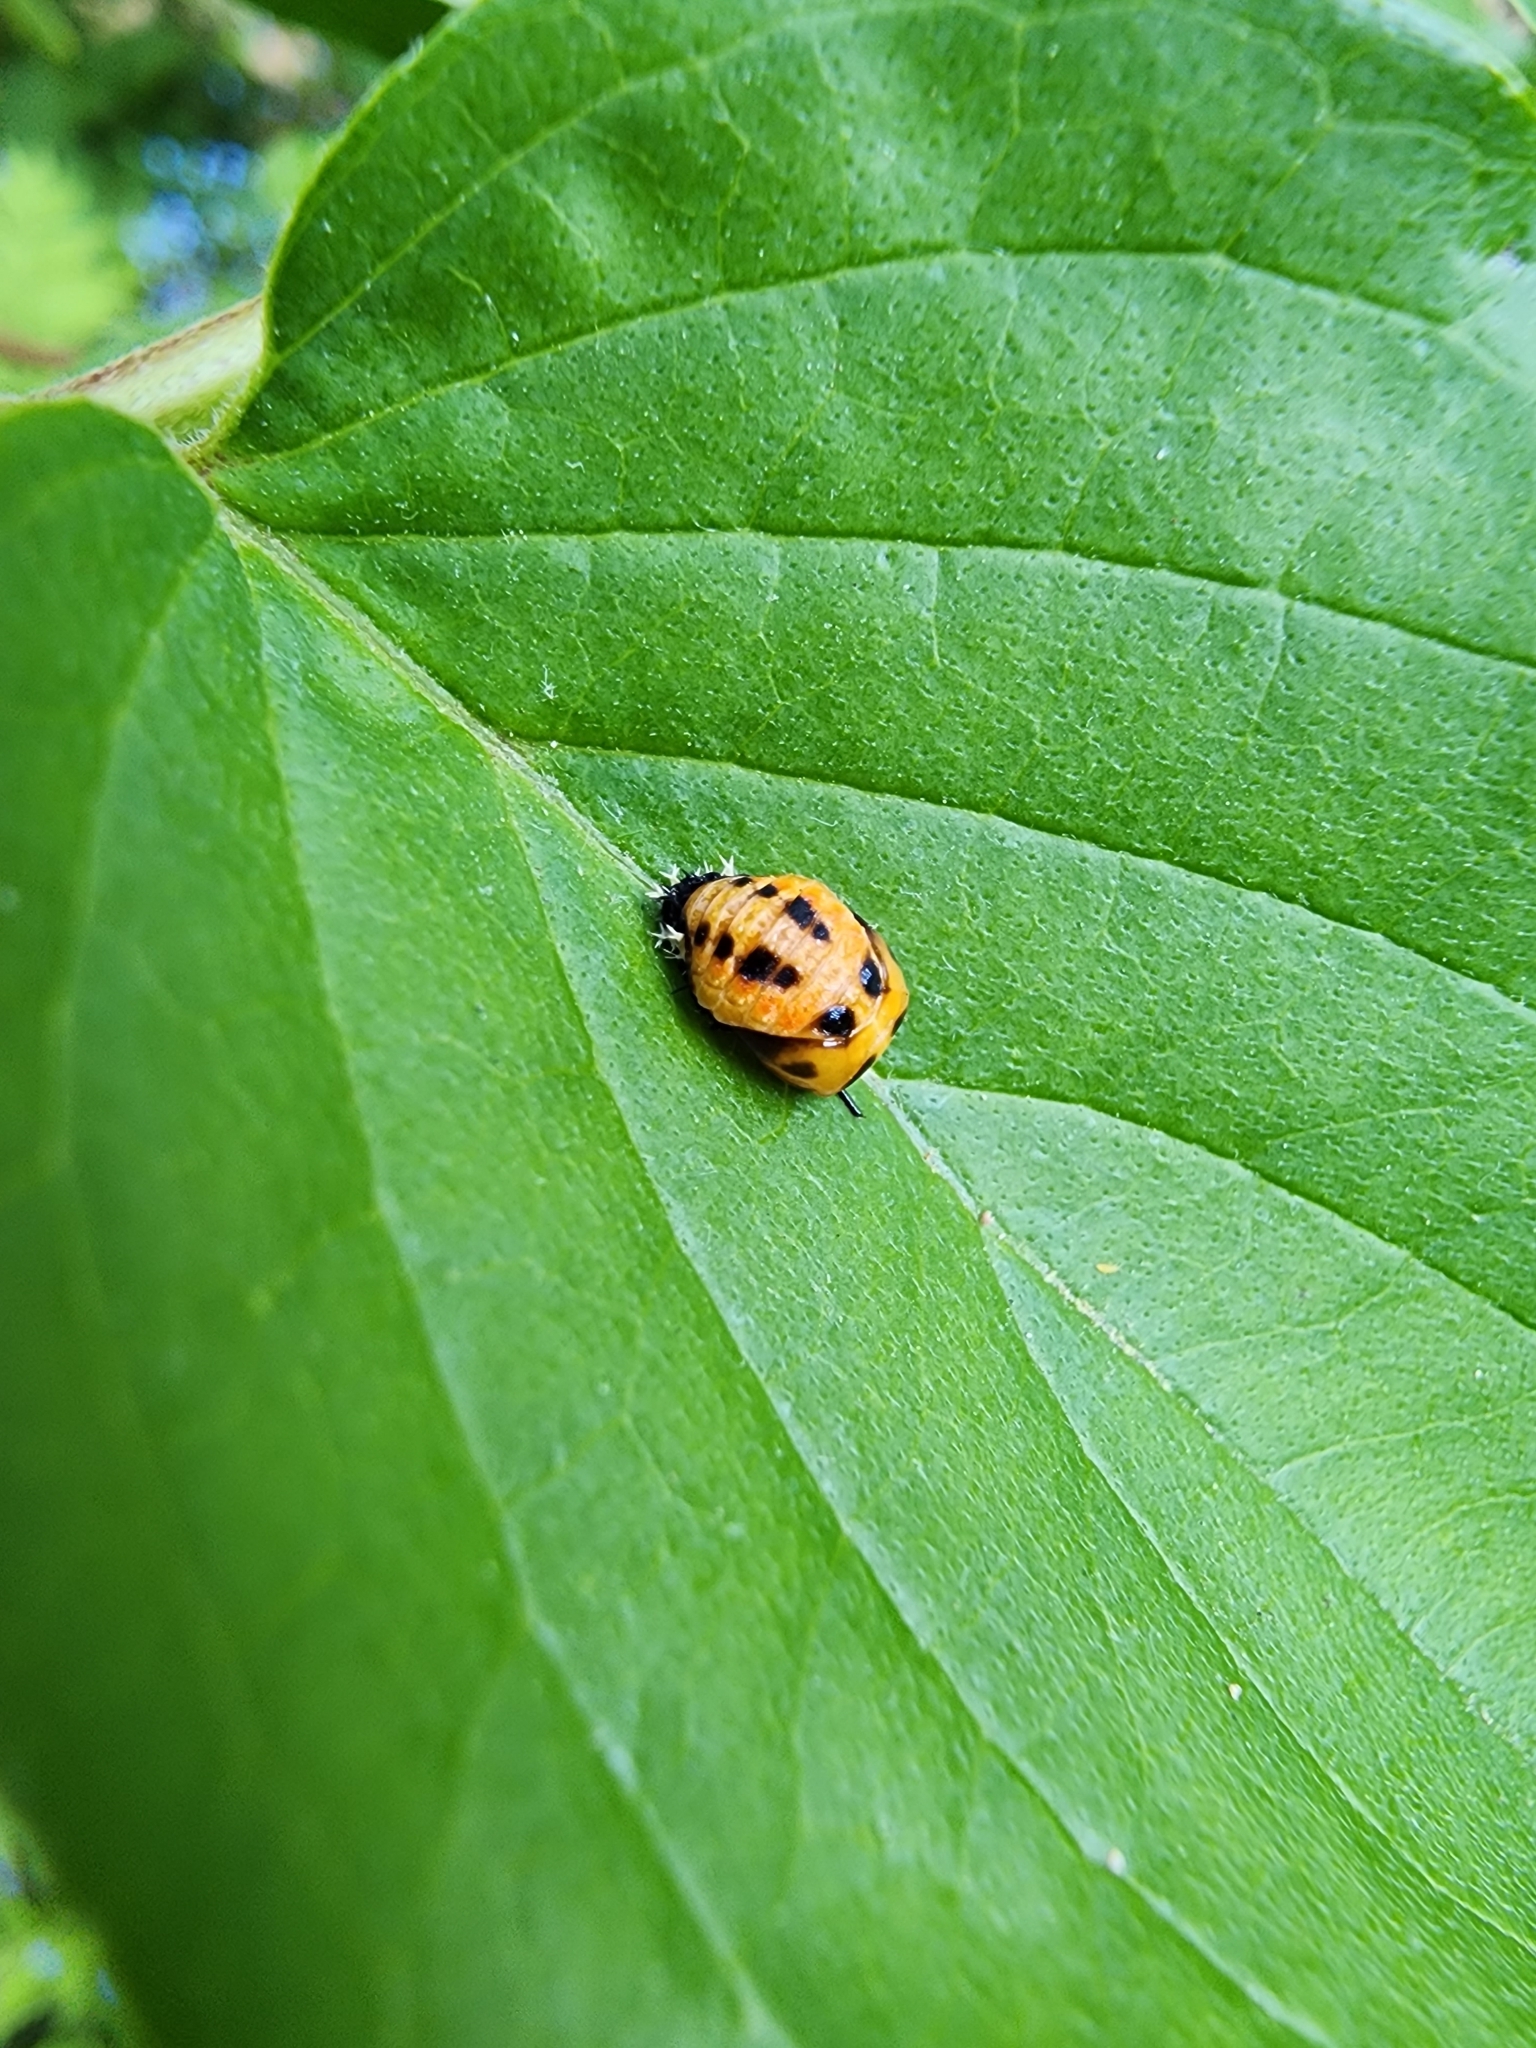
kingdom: Animalia
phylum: Arthropoda
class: Insecta
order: Coleoptera
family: Coccinellidae
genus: Harmonia
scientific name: Harmonia axyridis
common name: Harlequin ladybird
